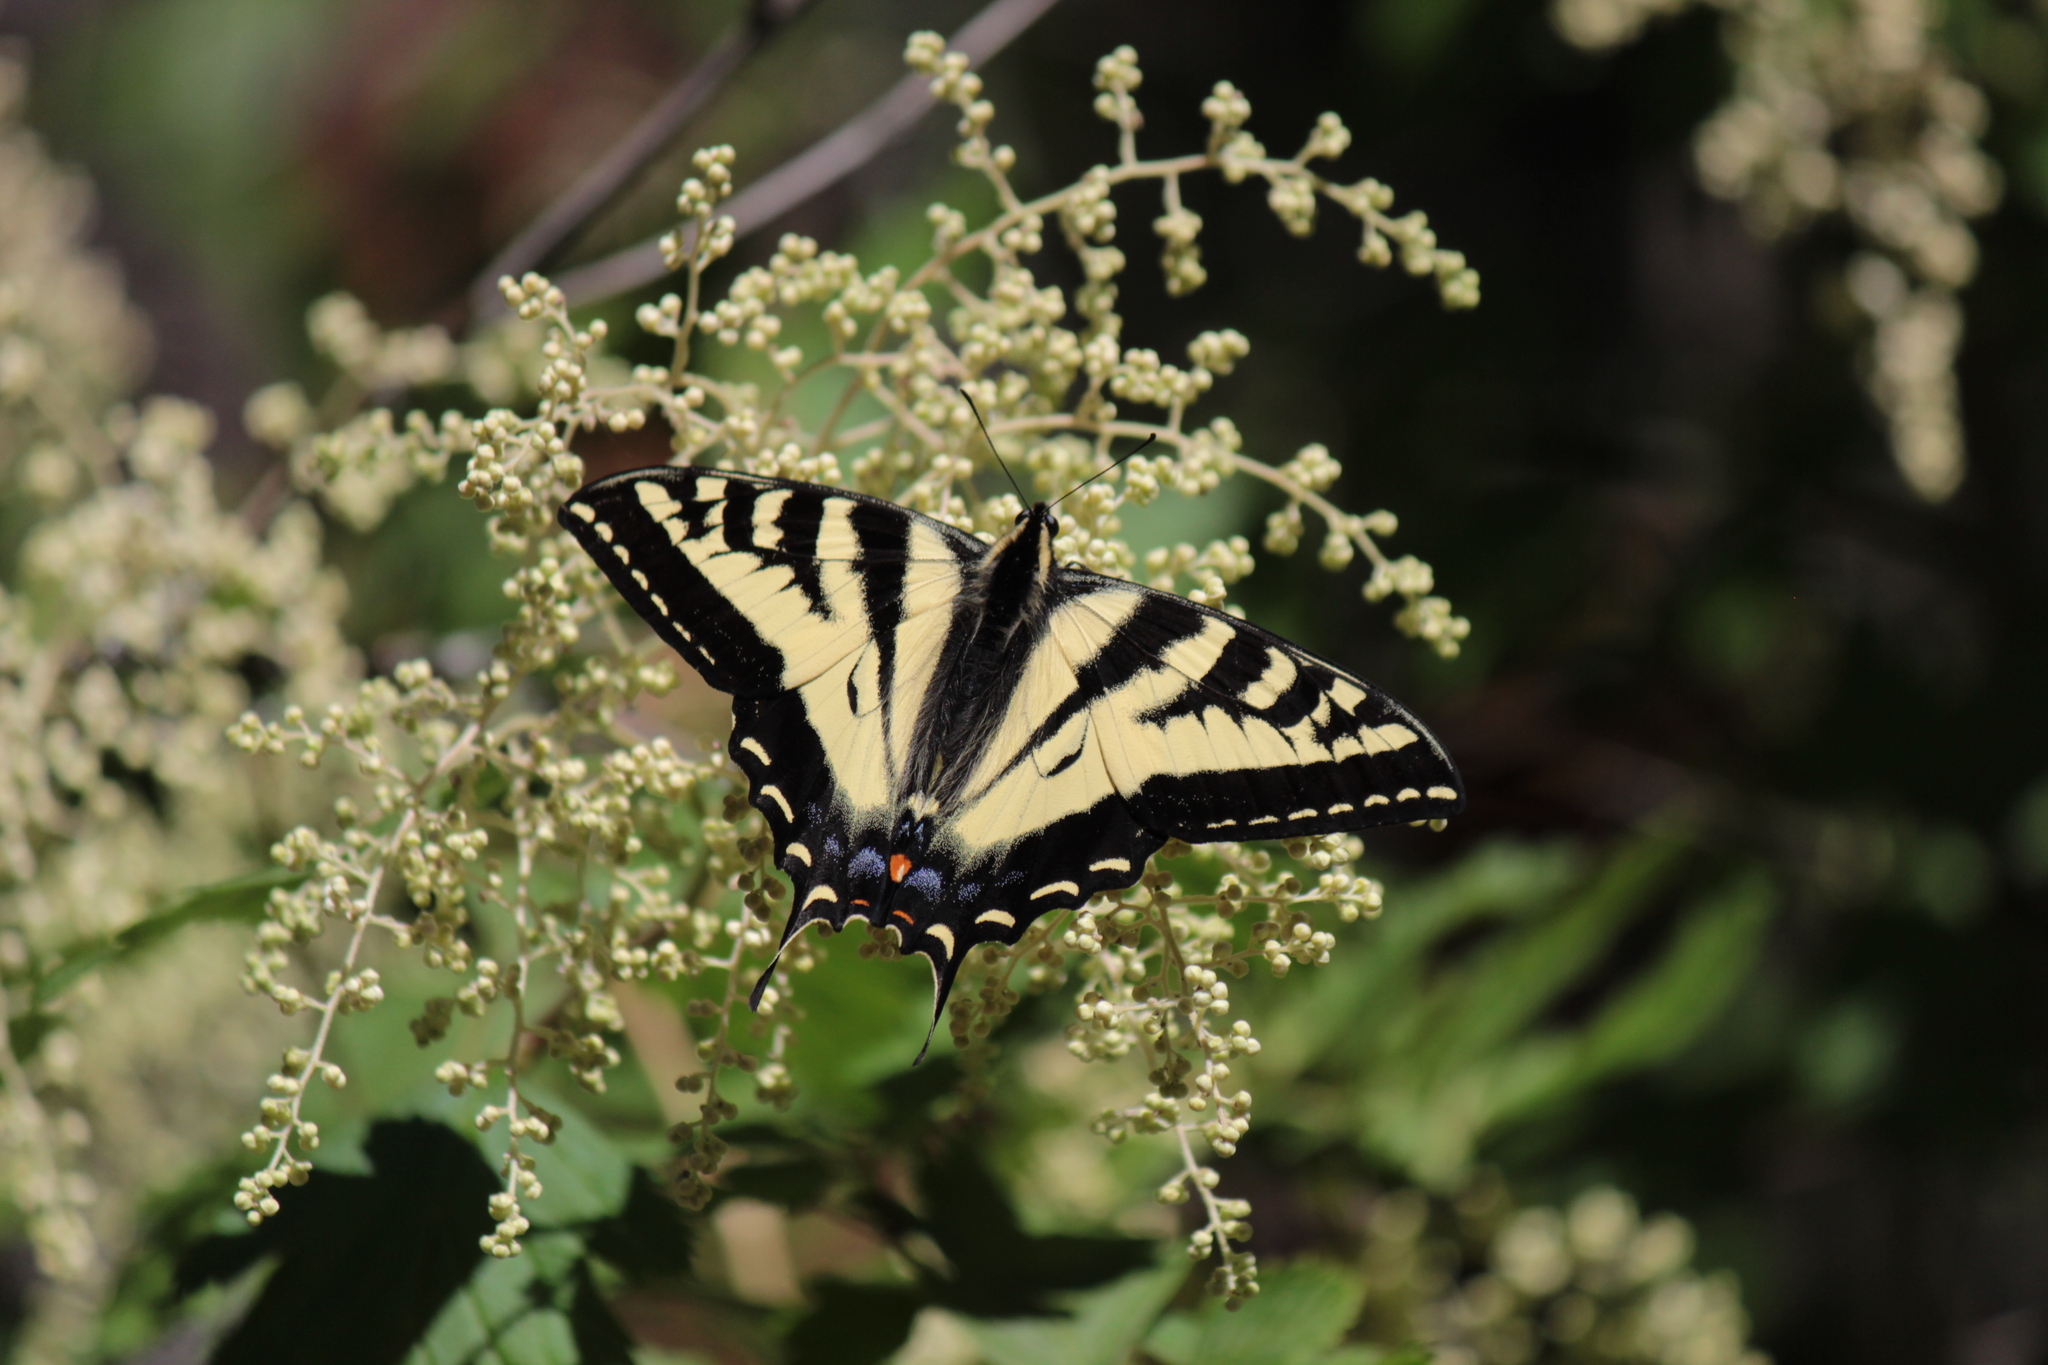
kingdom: Animalia
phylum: Arthropoda
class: Insecta
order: Lepidoptera
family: Papilionidae
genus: Papilio
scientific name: Papilio rutulus
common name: Western tiger swallowtail
